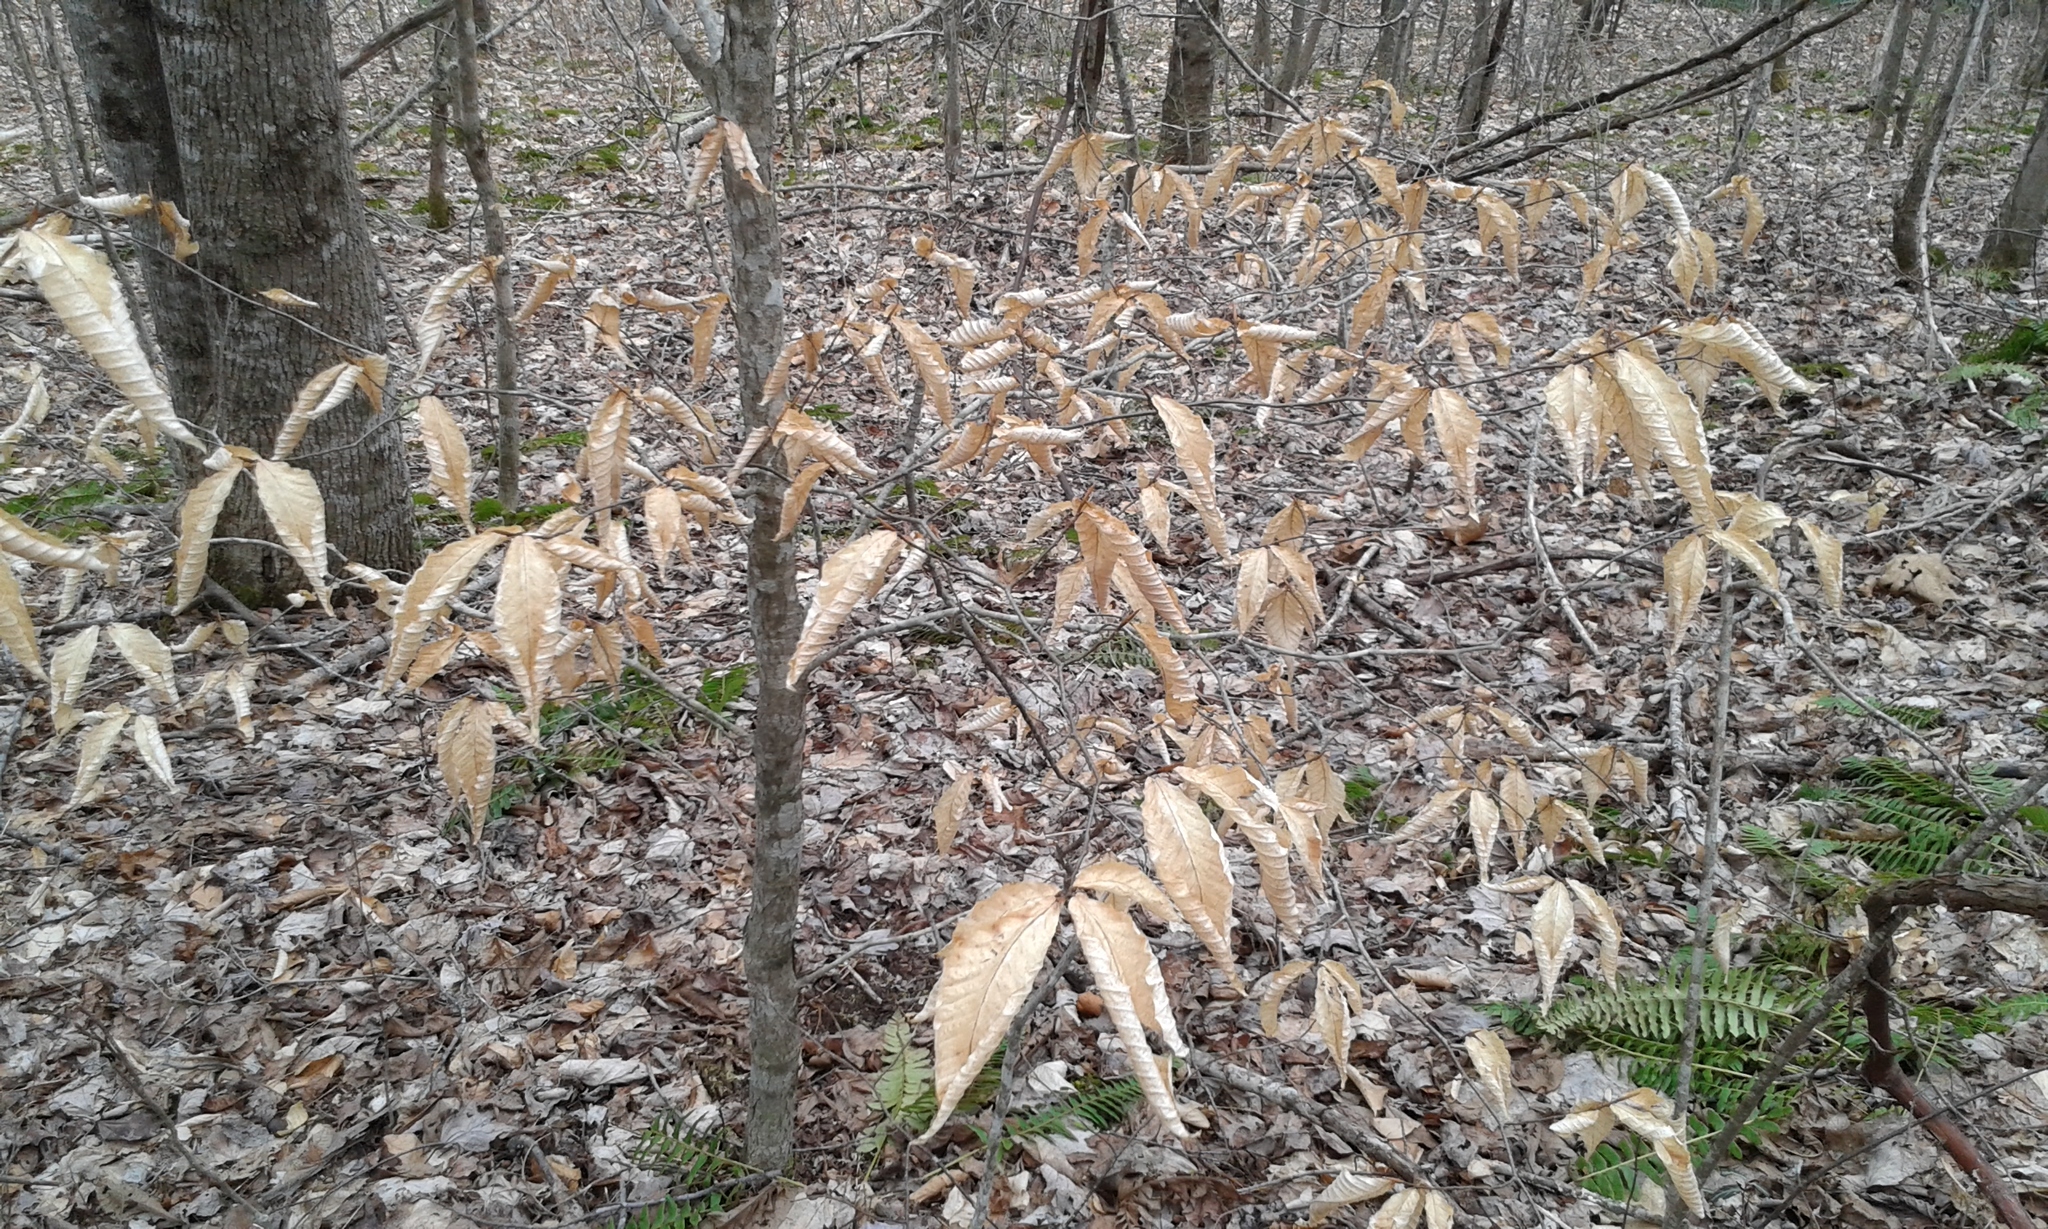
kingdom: Plantae
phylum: Tracheophyta
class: Magnoliopsida
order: Fagales
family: Fagaceae
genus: Fagus
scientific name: Fagus grandifolia
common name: American beech
